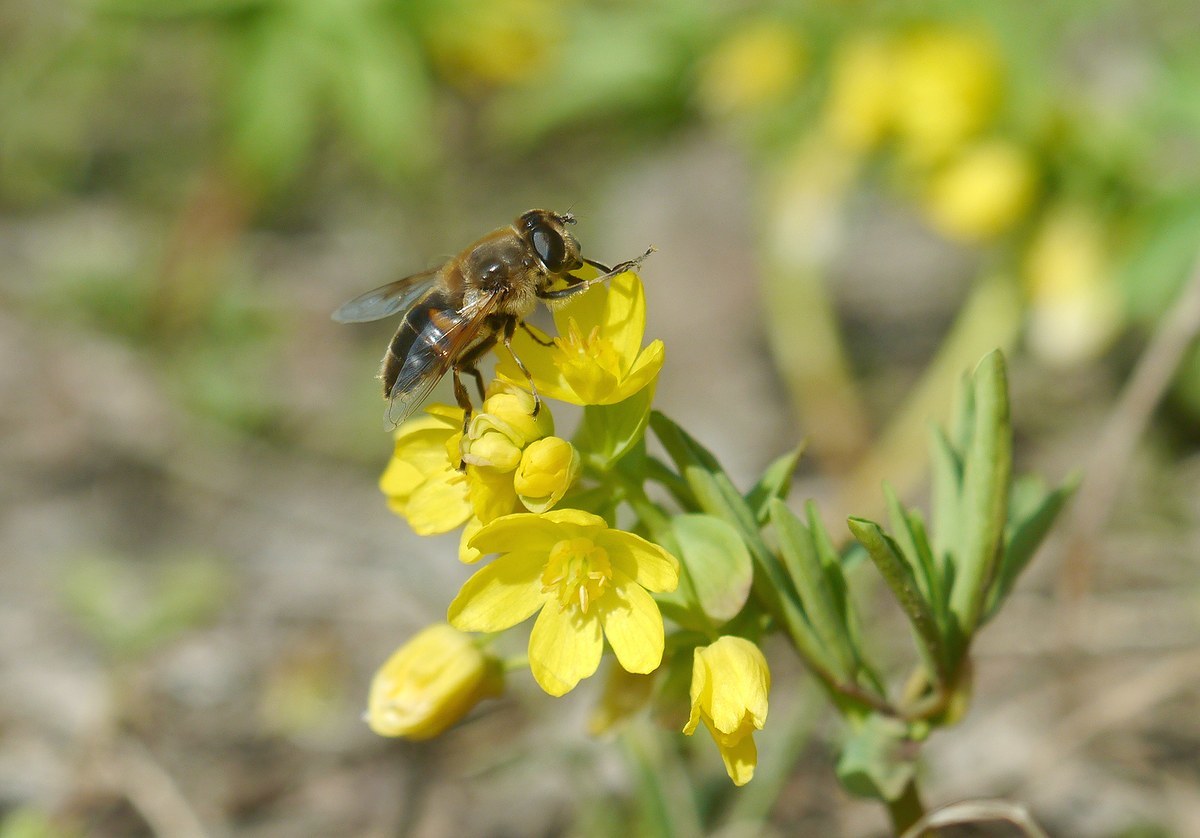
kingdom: Animalia
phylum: Arthropoda
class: Insecta
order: Diptera
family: Syrphidae
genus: Eristalis
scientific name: Eristalis tenax
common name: Drone fly
